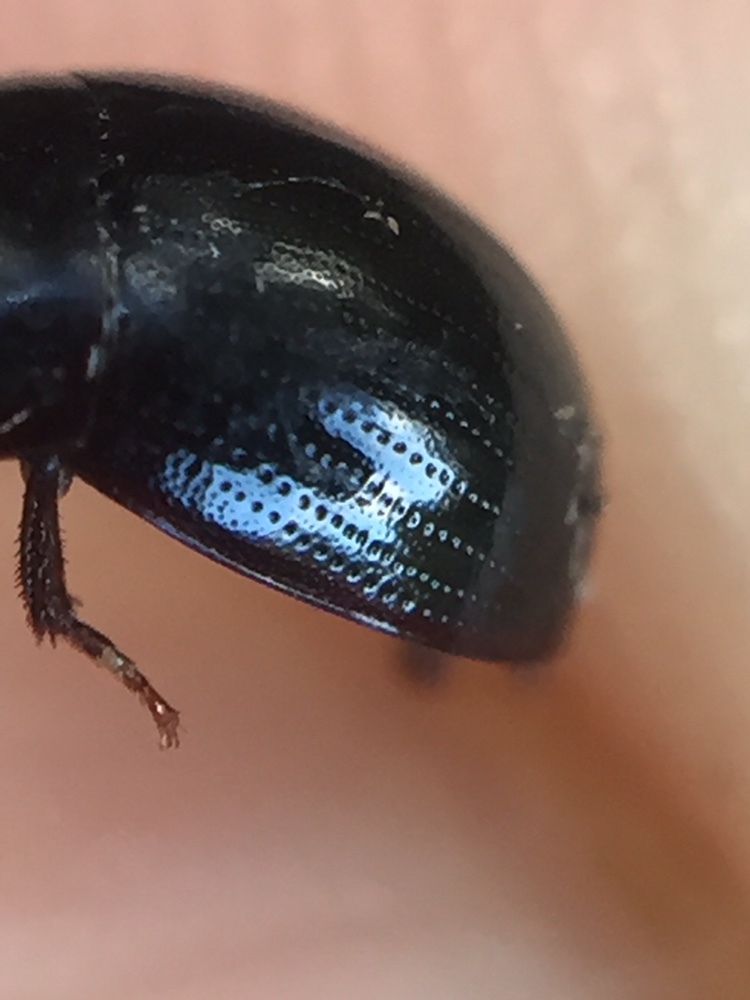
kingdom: Animalia
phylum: Arthropoda
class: Insecta
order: Coleoptera
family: Hydrophilidae
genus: Tormissus
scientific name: Tormissus linsi
